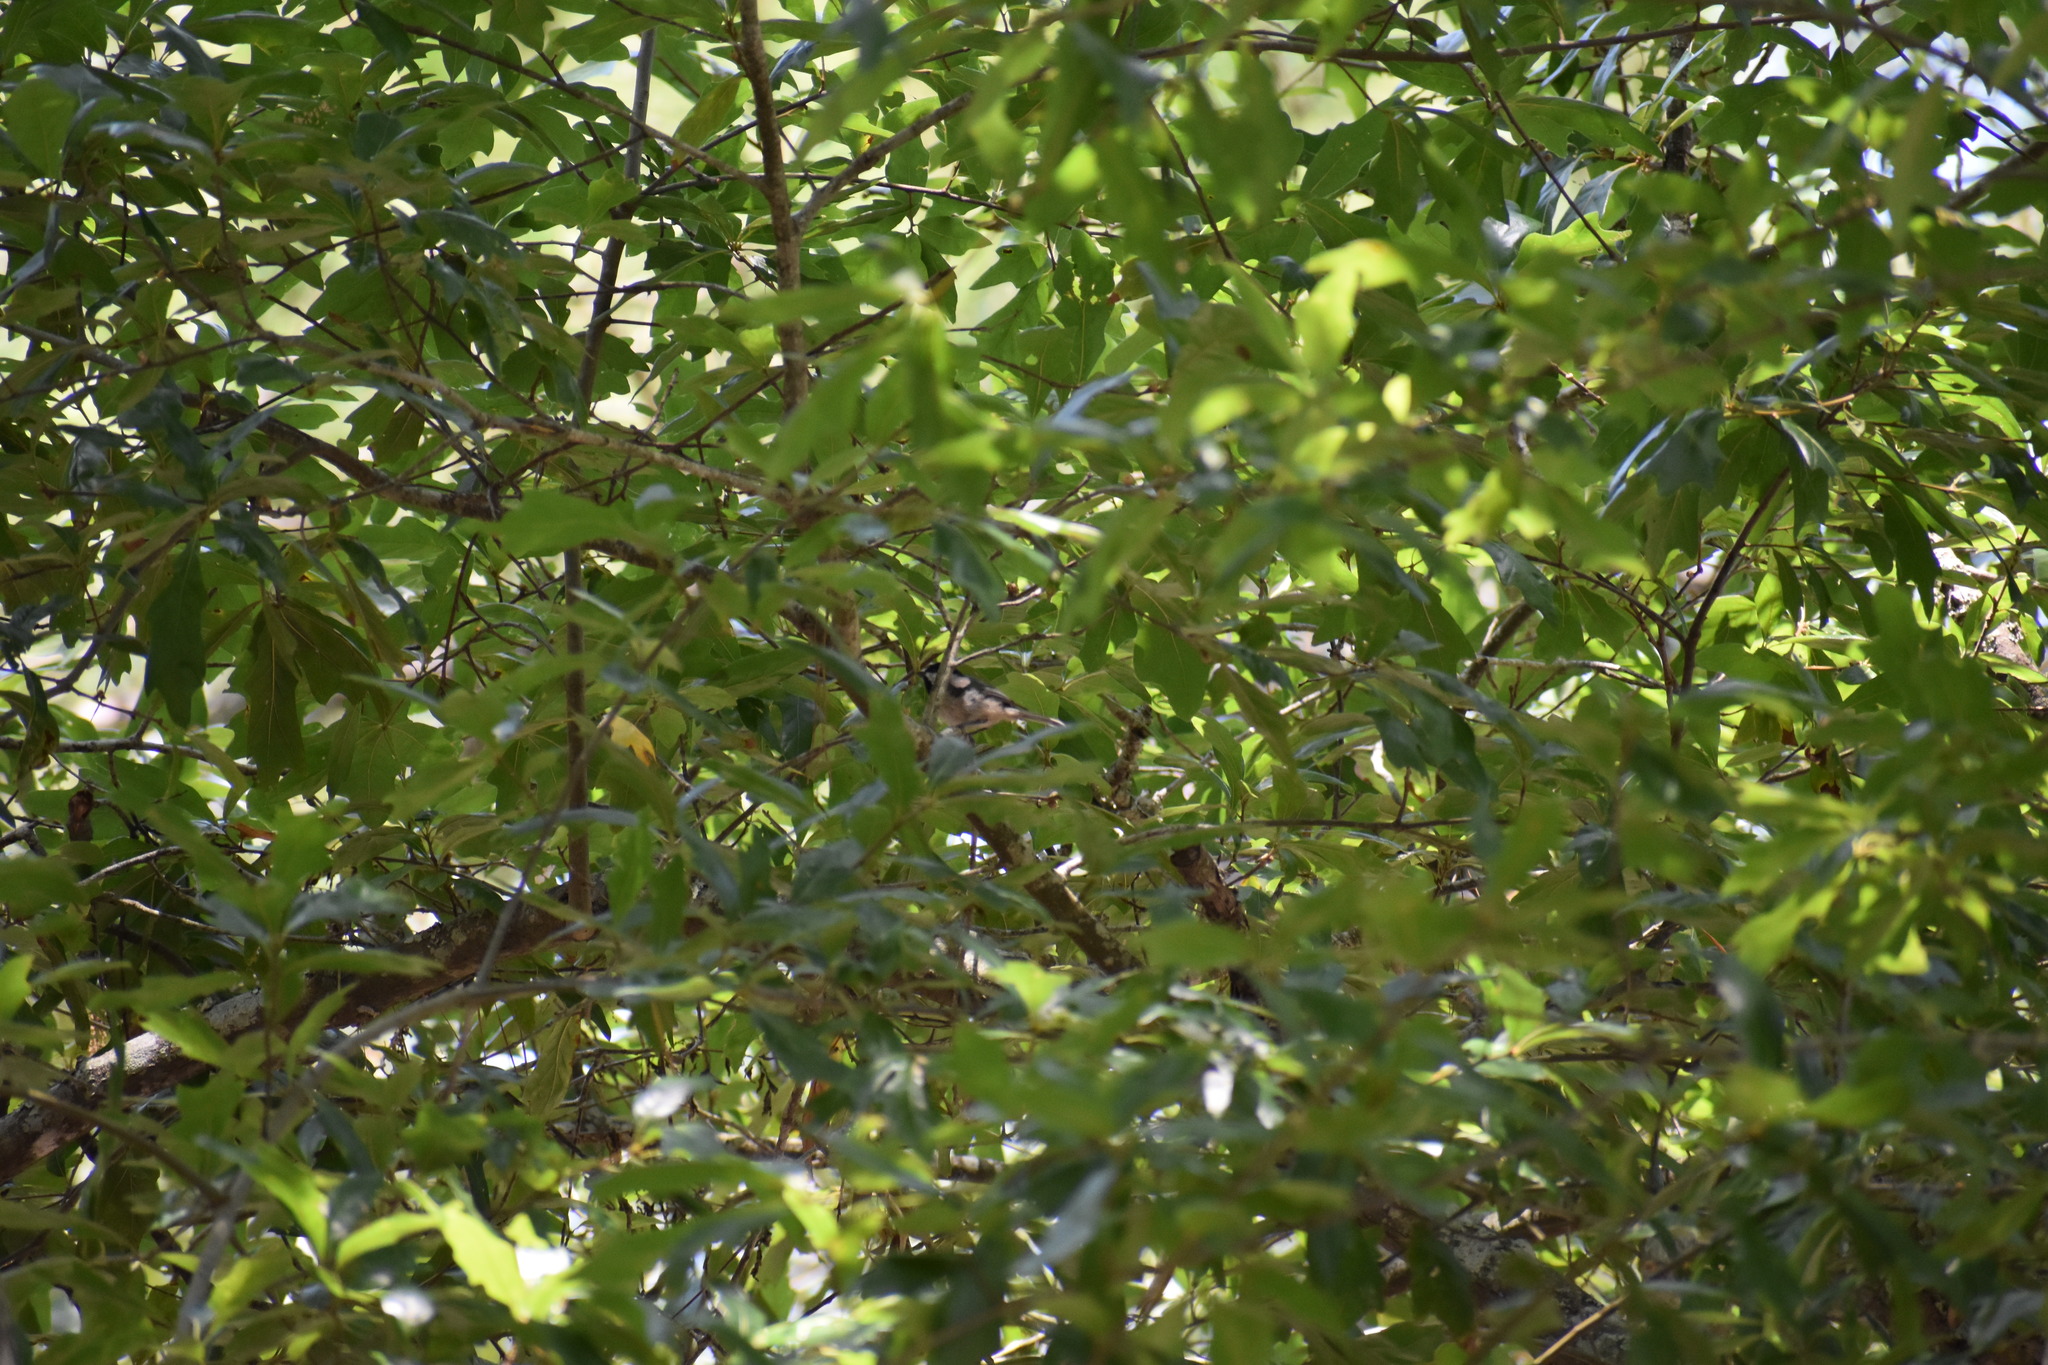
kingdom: Animalia
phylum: Chordata
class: Aves
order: Passeriformes
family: Paridae
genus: Poecile
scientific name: Poecile carolinensis
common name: Carolina chickadee
